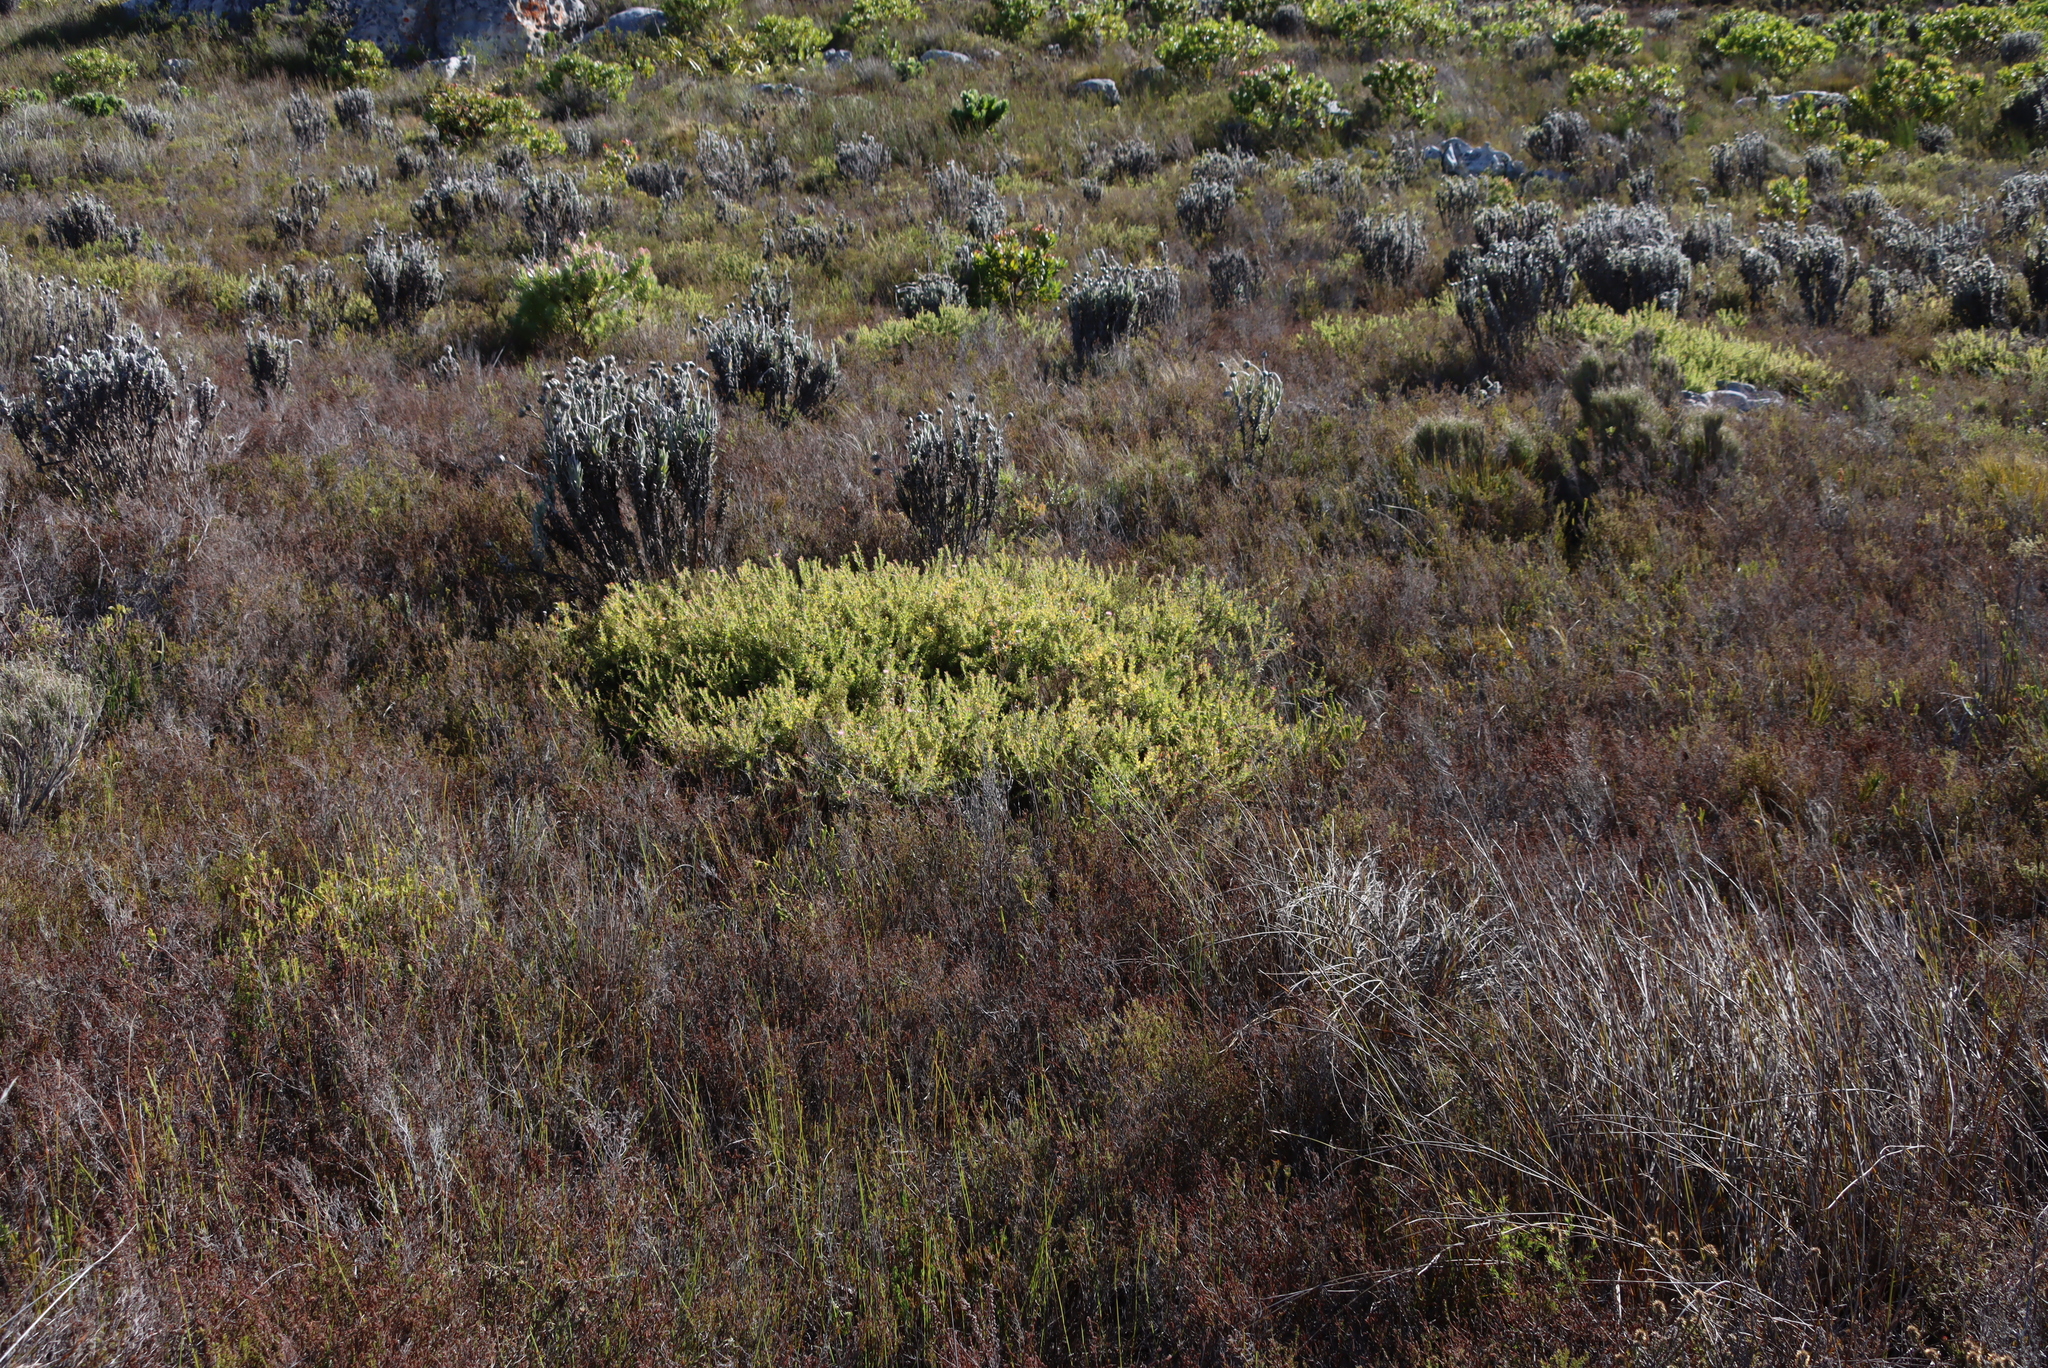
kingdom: Plantae
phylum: Tracheophyta
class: Magnoliopsida
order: Proteales
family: Proteaceae
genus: Diastella
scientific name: Diastella divaricata
